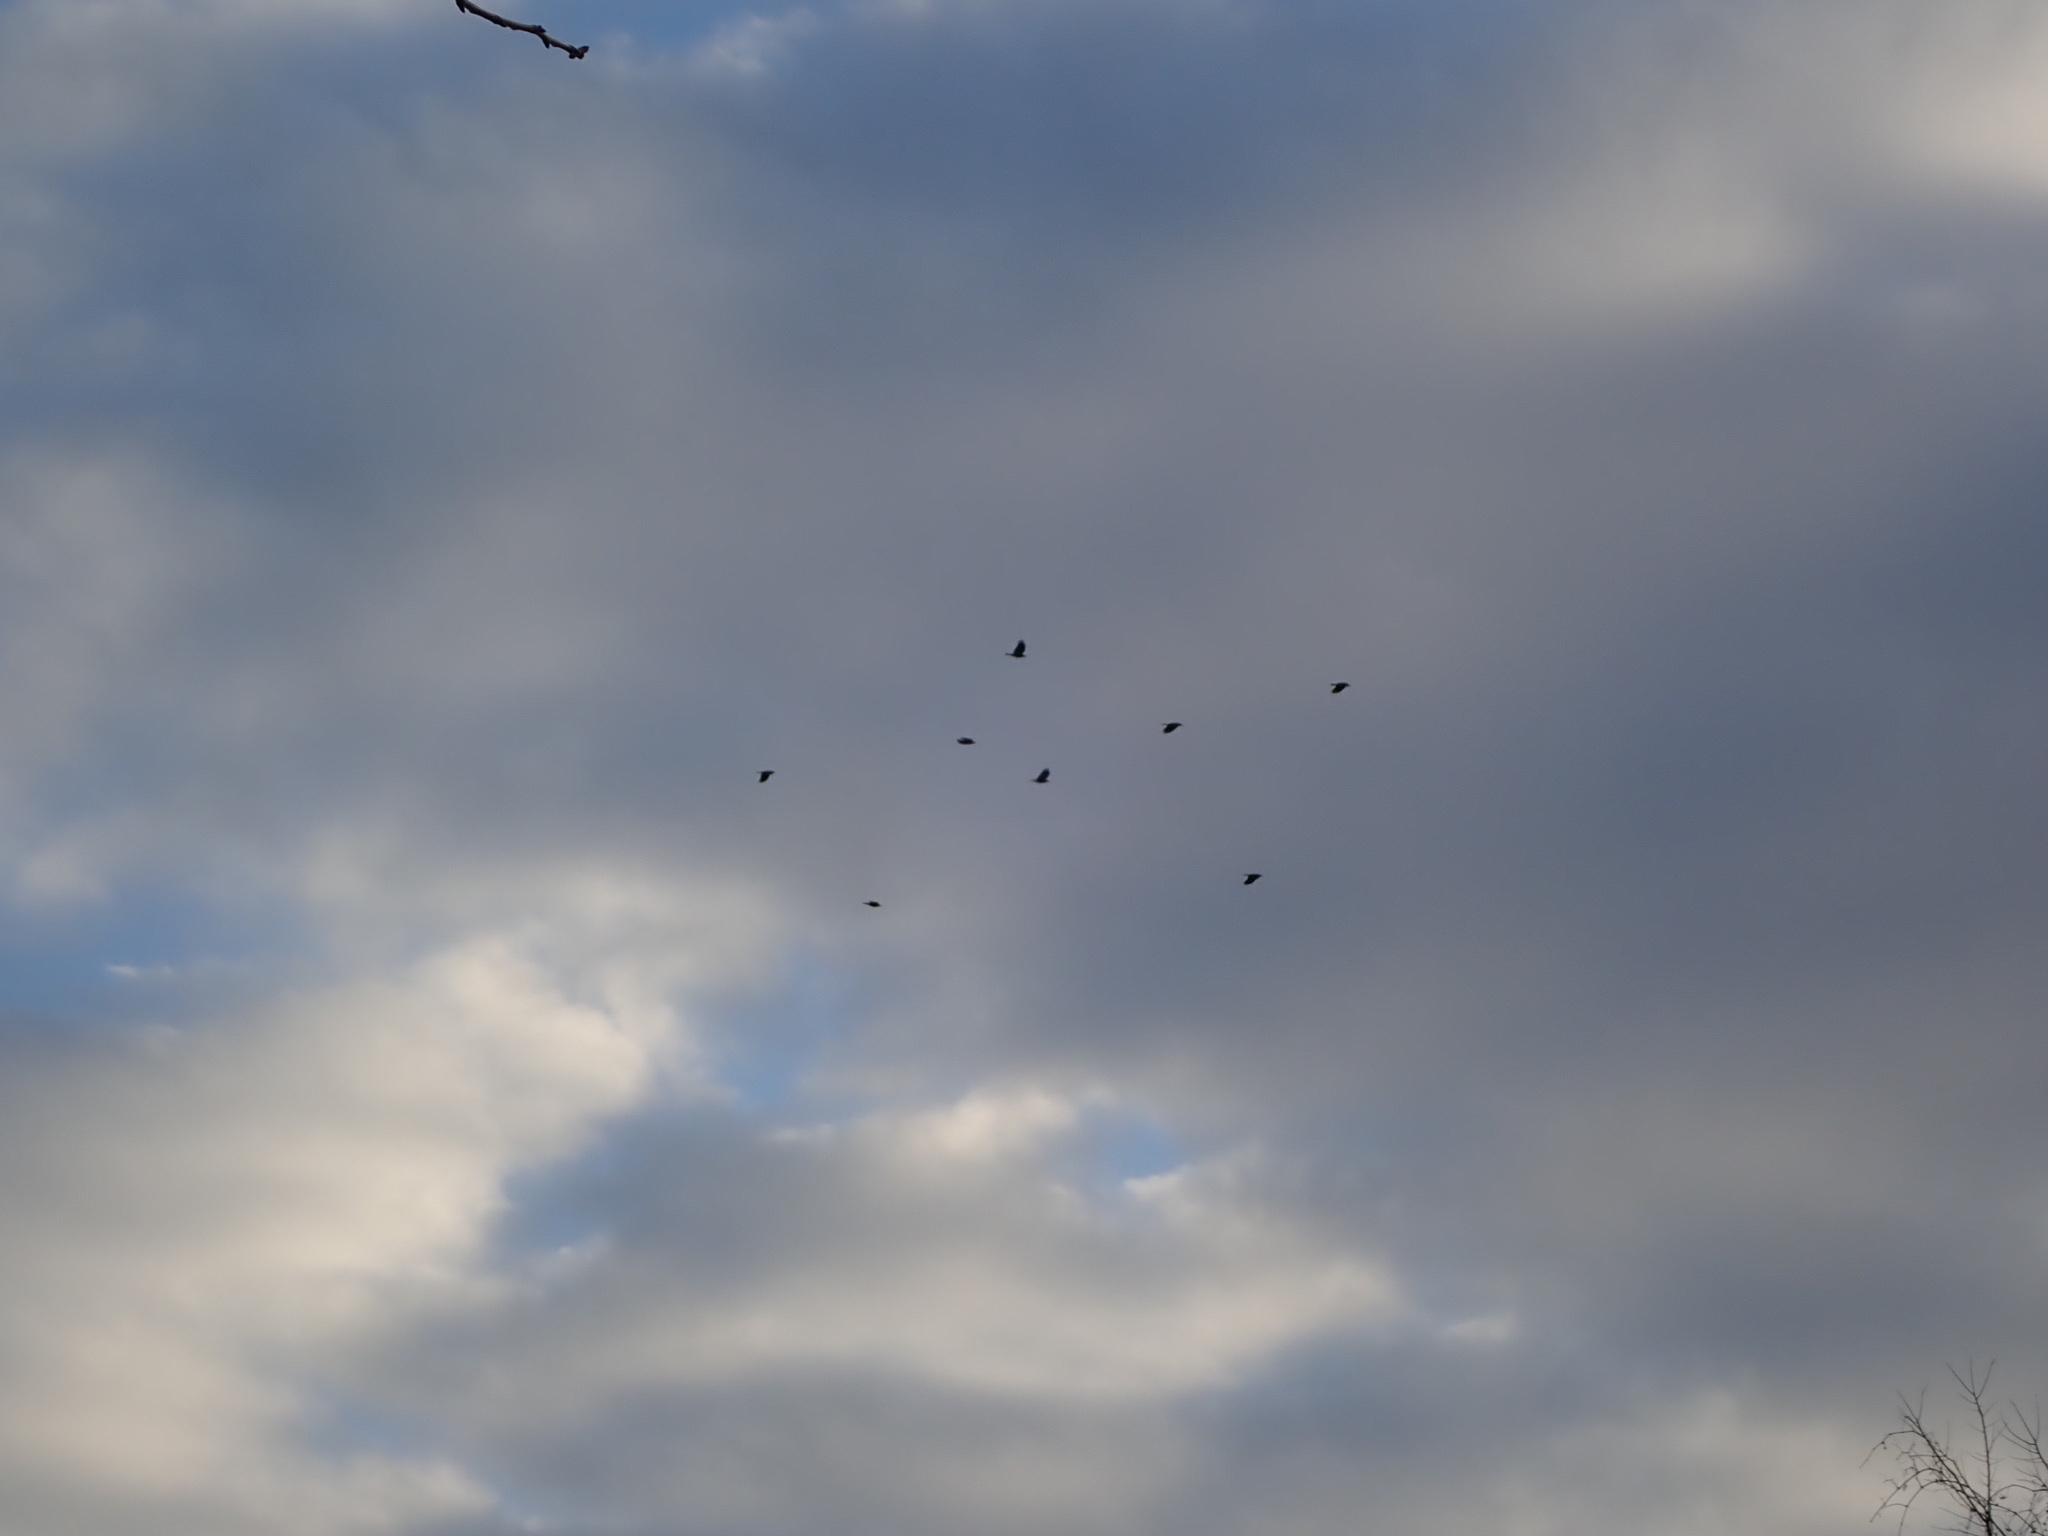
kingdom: Animalia
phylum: Chordata
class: Aves
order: Passeriformes
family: Corvidae
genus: Corvus
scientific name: Corvus brachyrhynchos
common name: American crow
